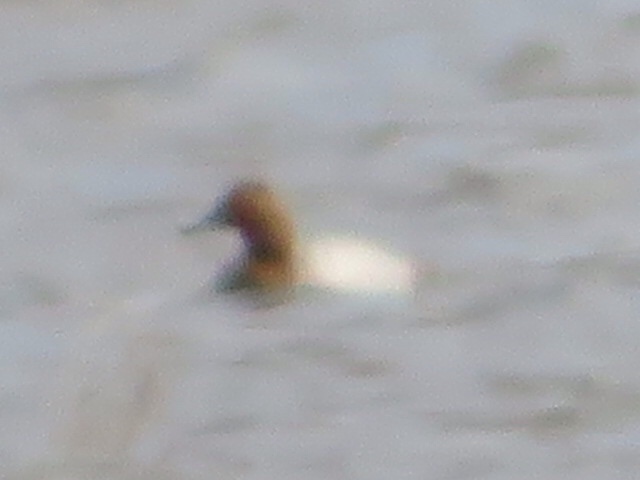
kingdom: Animalia
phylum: Chordata
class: Aves
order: Anseriformes
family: Anatidae
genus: Aythya
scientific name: Aythya valisineria
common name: Canvasback
